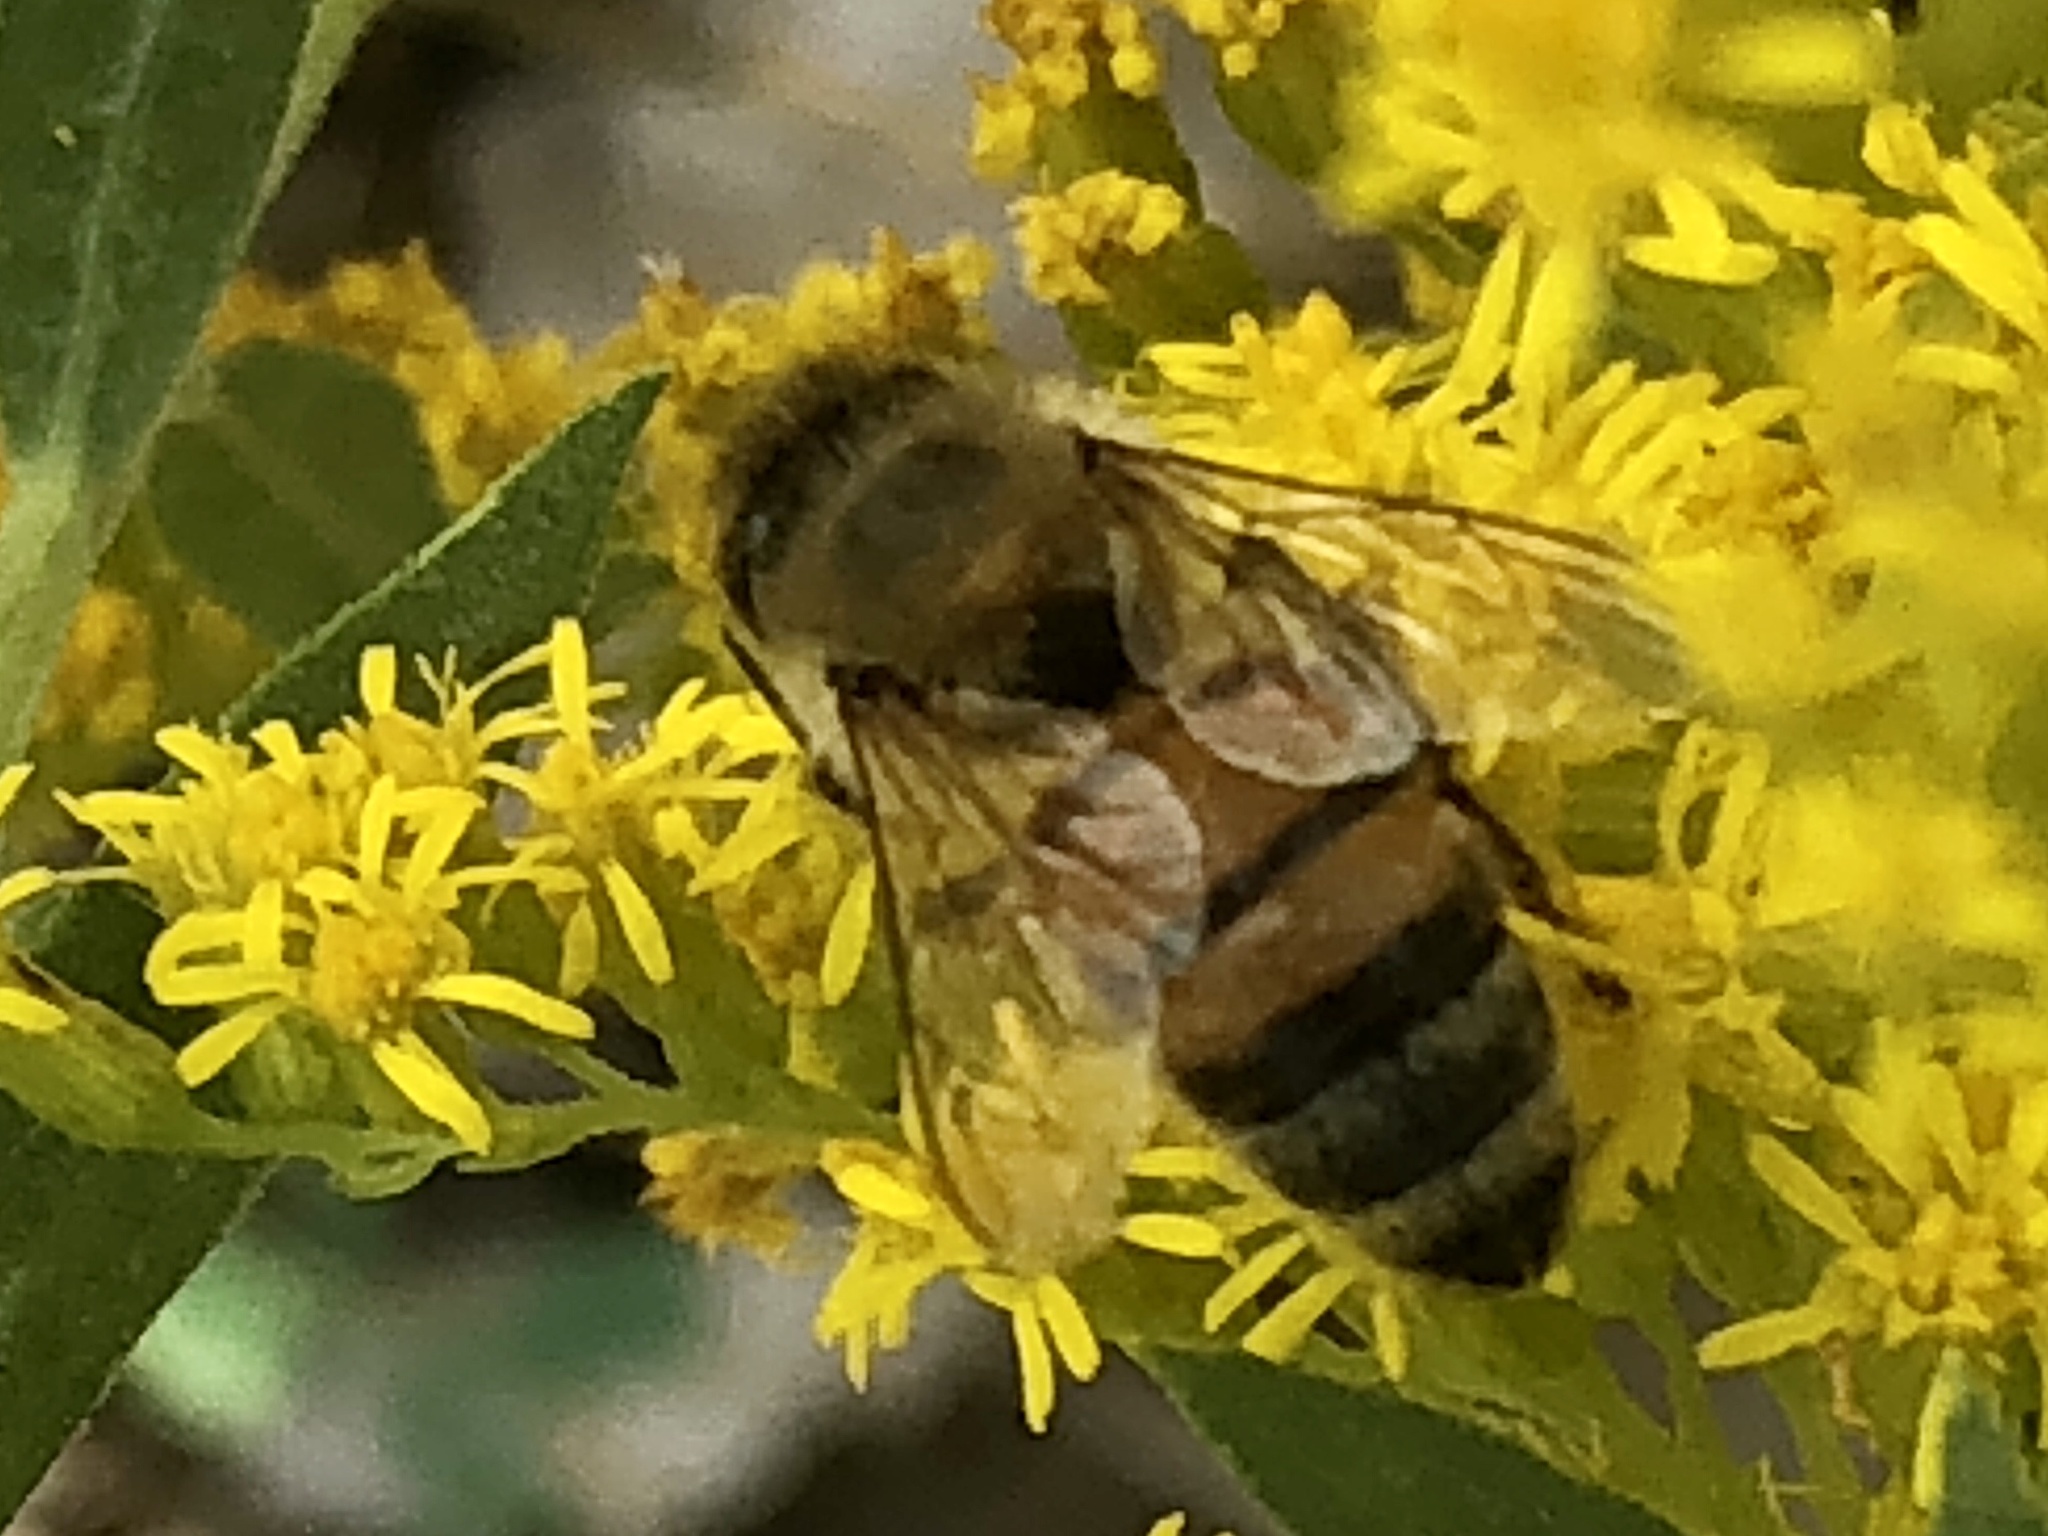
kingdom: Animalia
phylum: Arthropoda
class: Insecta
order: Hymenoptera
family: Apidae
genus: Apis
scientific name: Apis mellifera
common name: Honey bee
